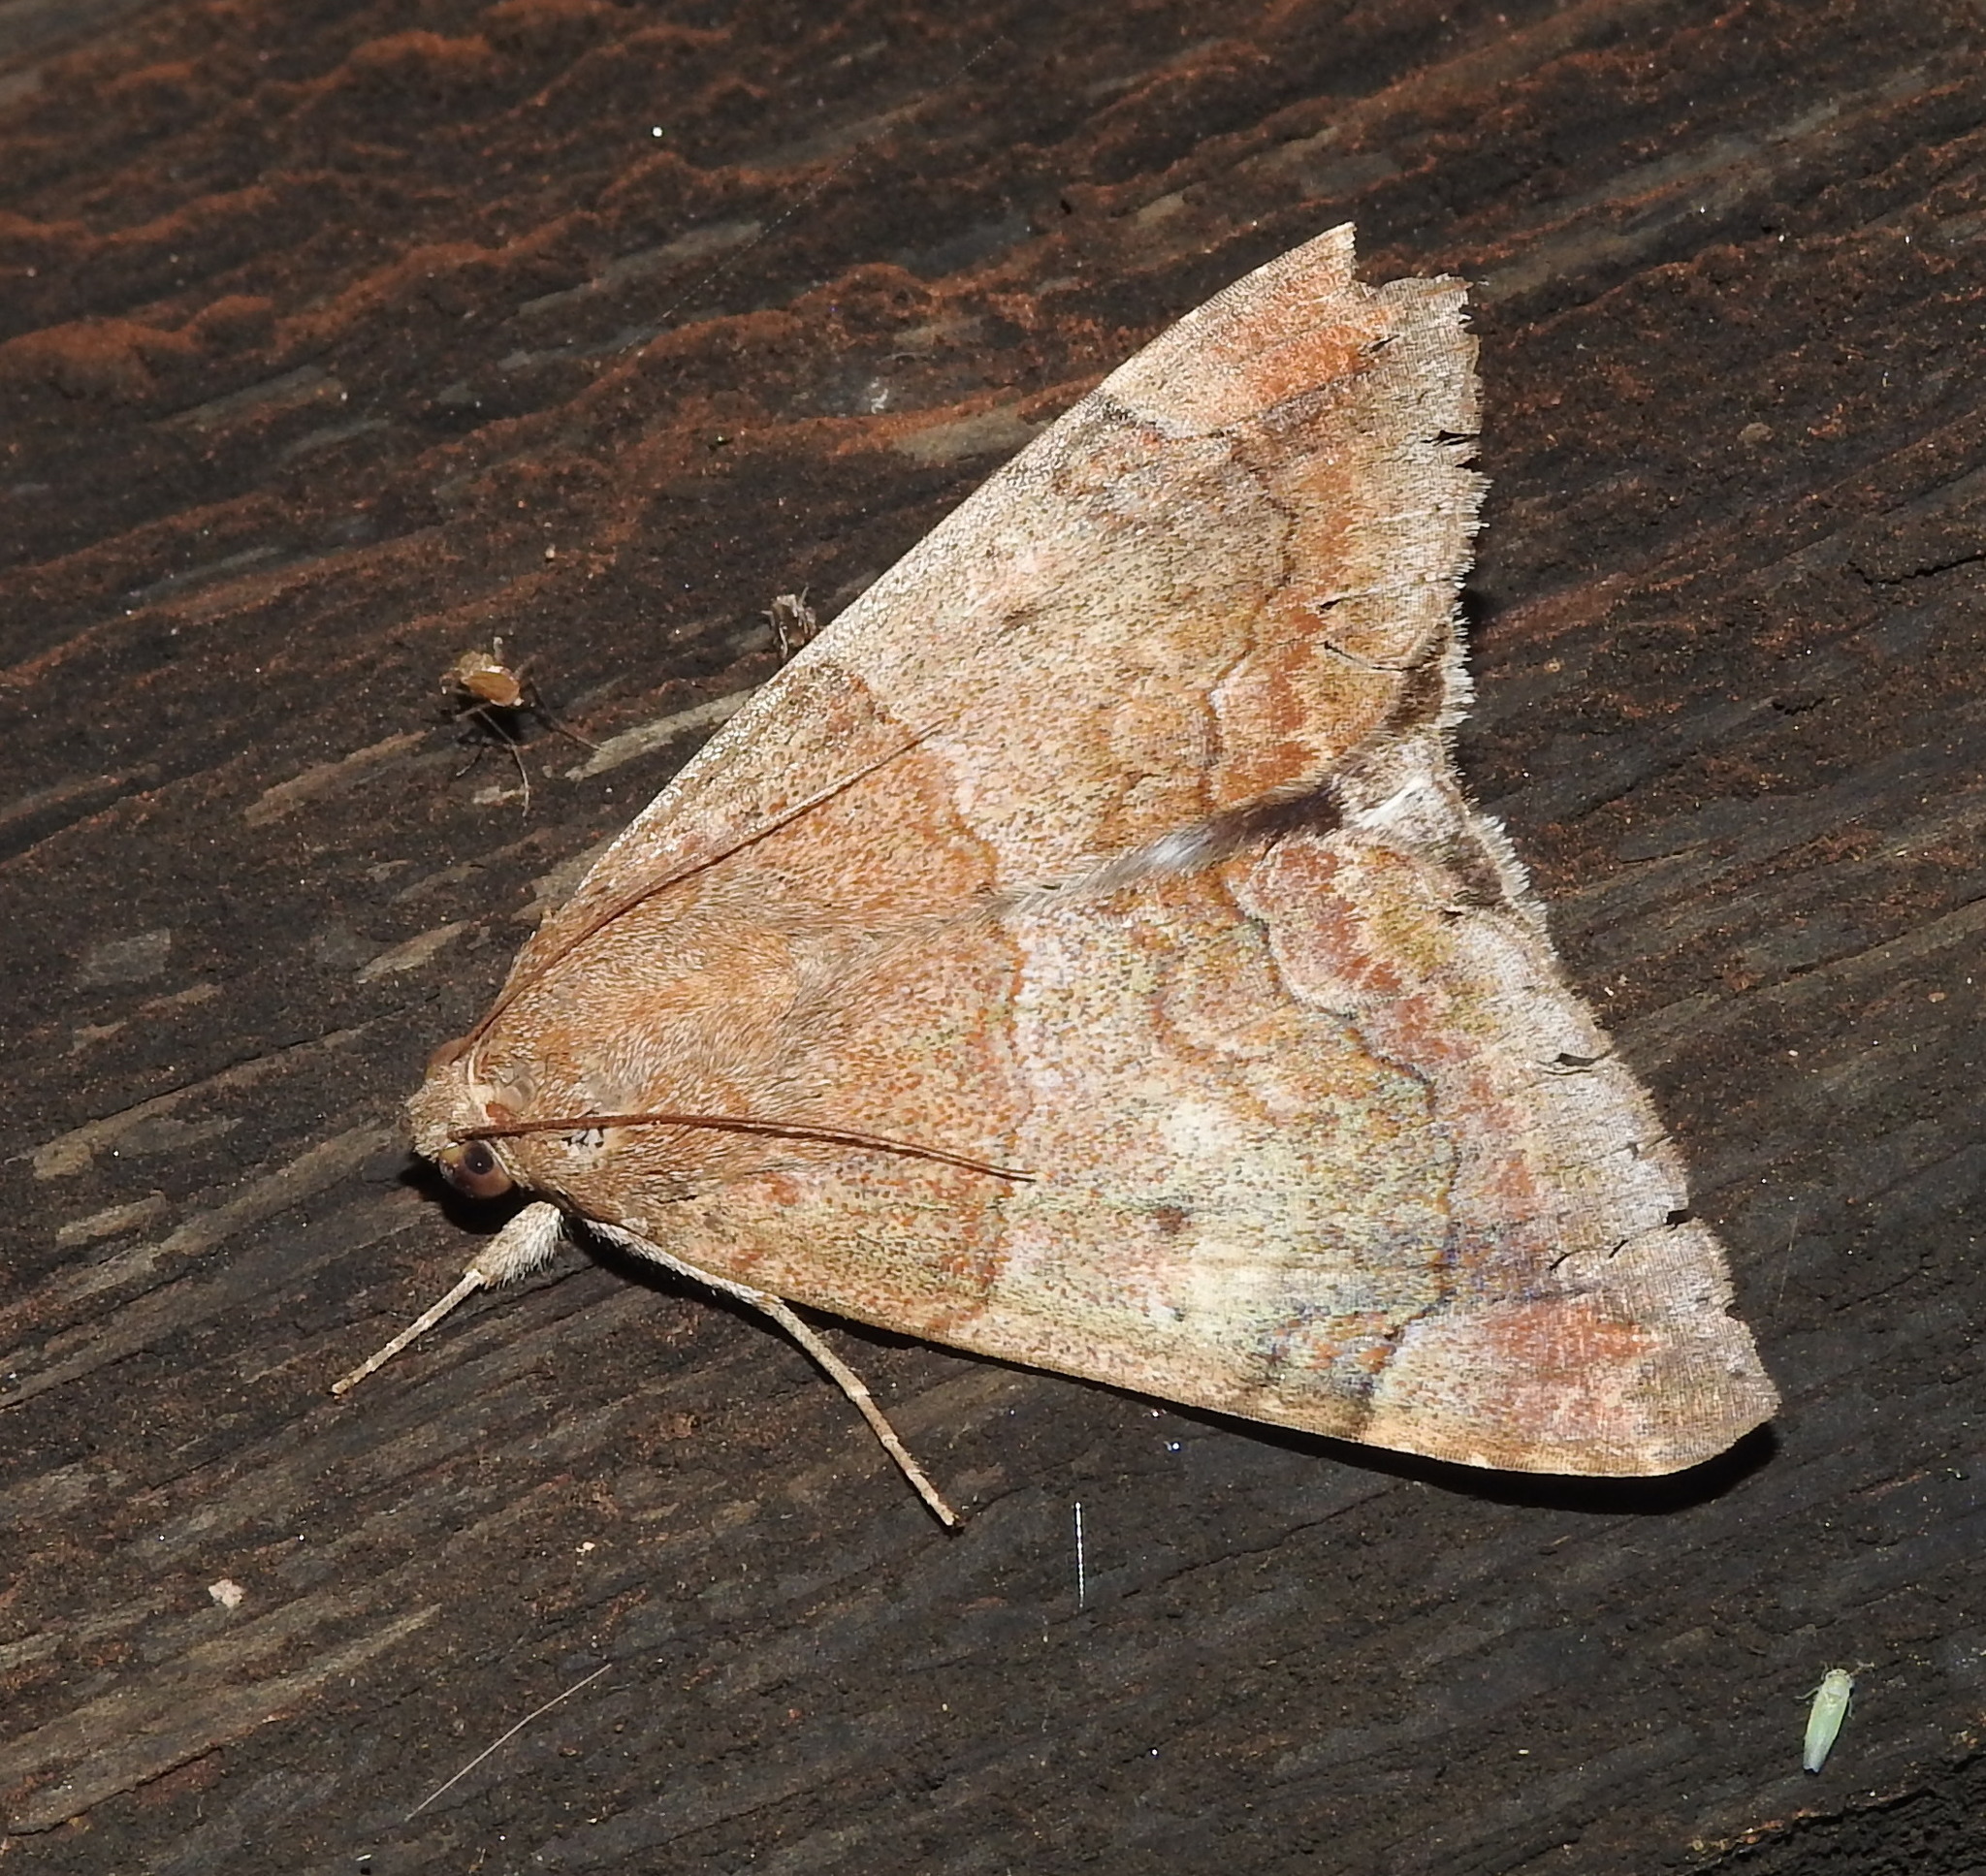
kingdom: Animalia
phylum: Arthropoda
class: Insecta
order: Lepidoptera
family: Erebidae
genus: Achaea
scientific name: Achaea janata
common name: Croton caterpillar
